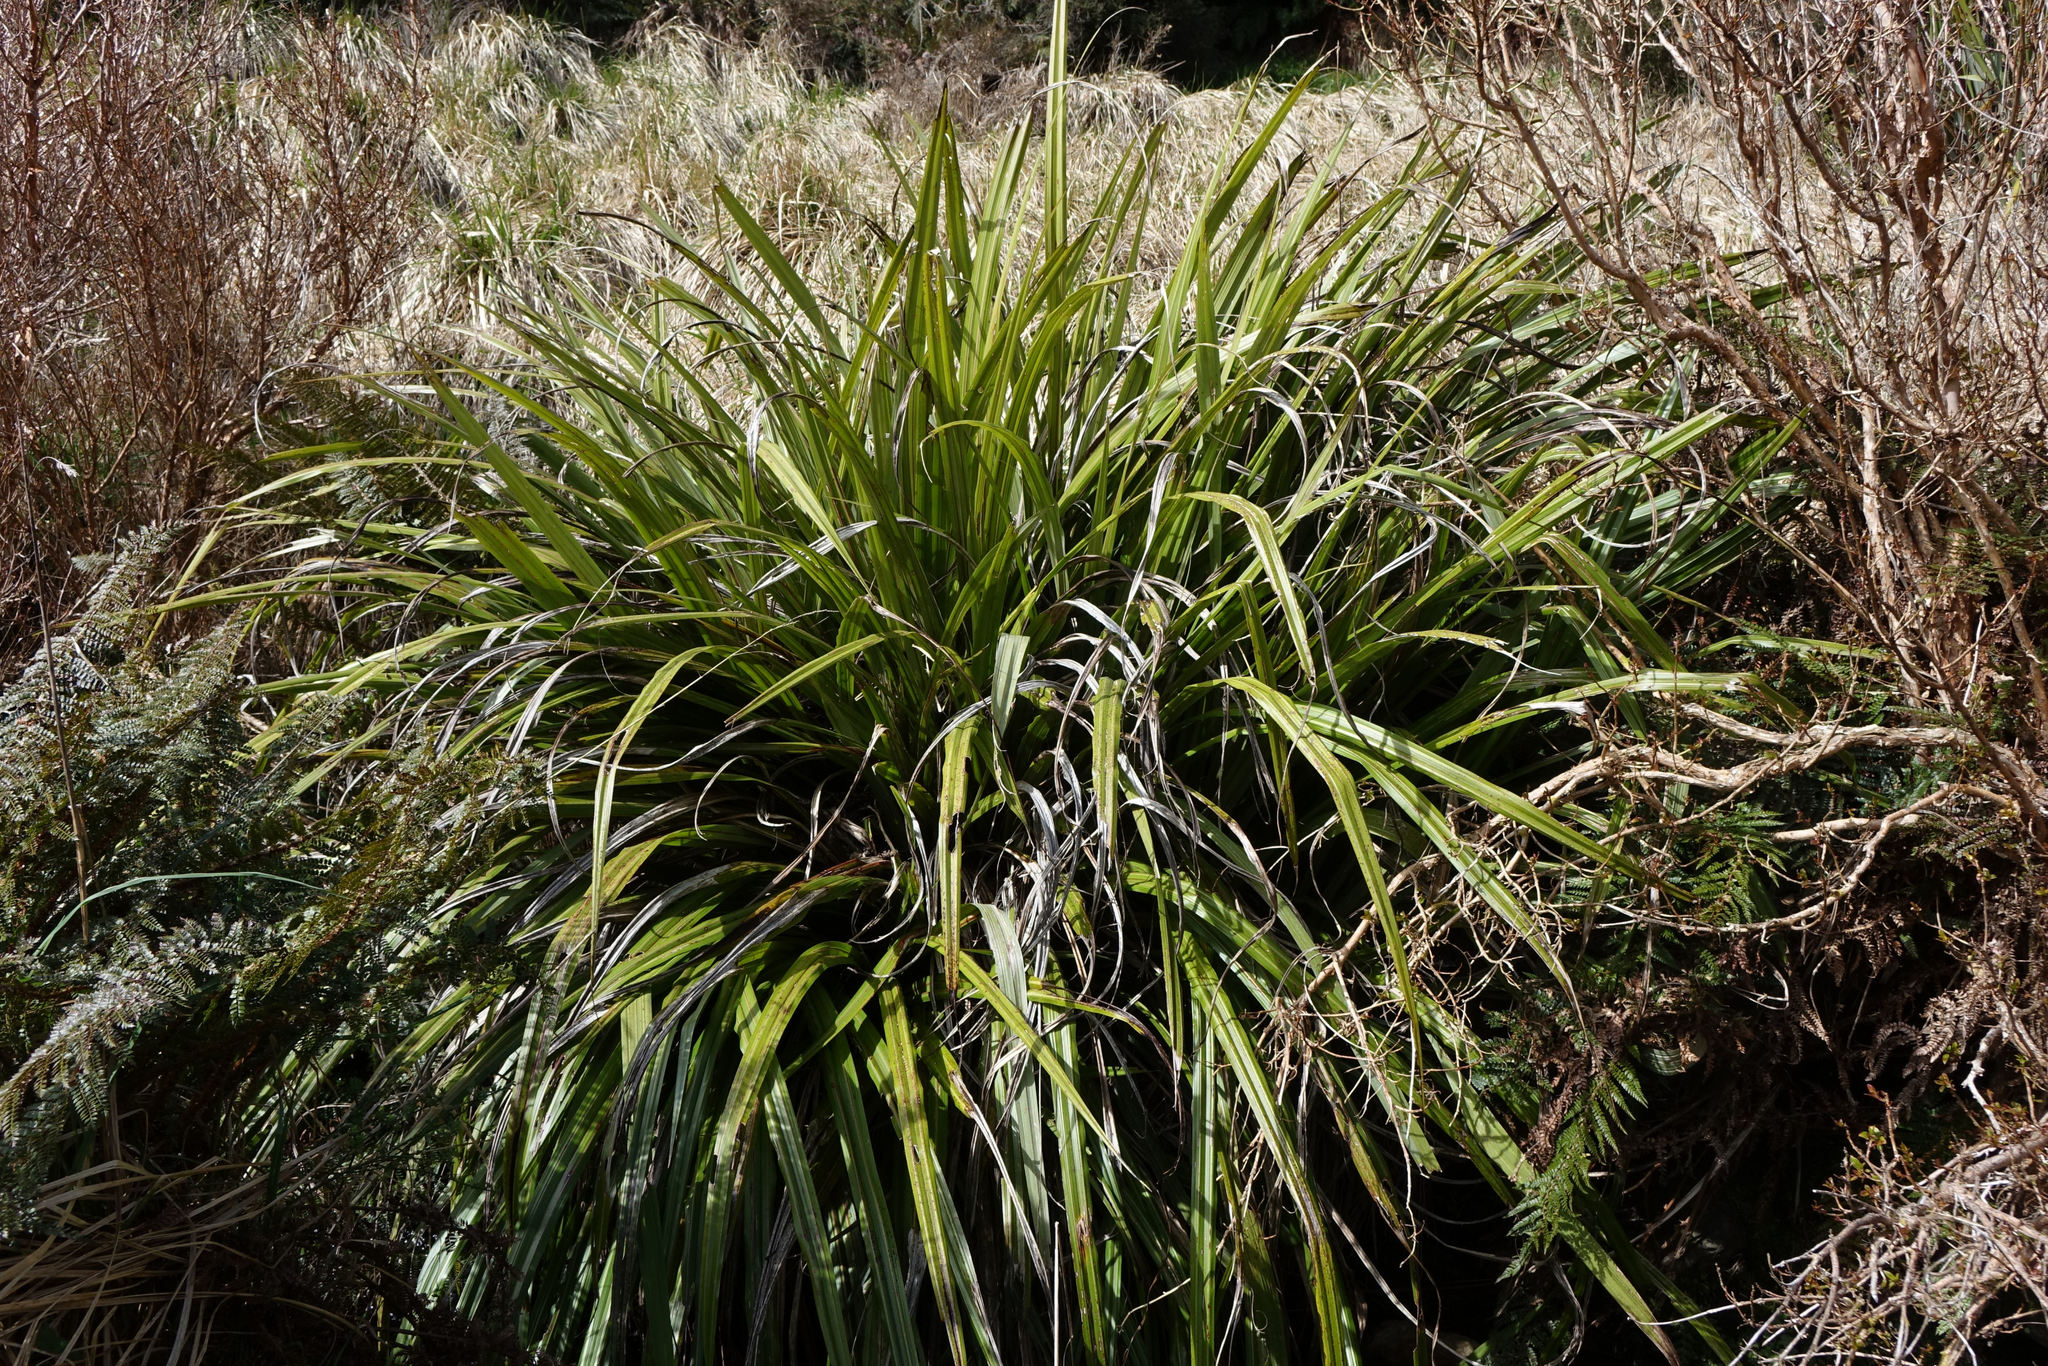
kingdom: Plantae
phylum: Tracheophyta
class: Liliopsida
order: Asparagales
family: Asteliaceae
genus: Astelia
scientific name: Astelia fragrans
